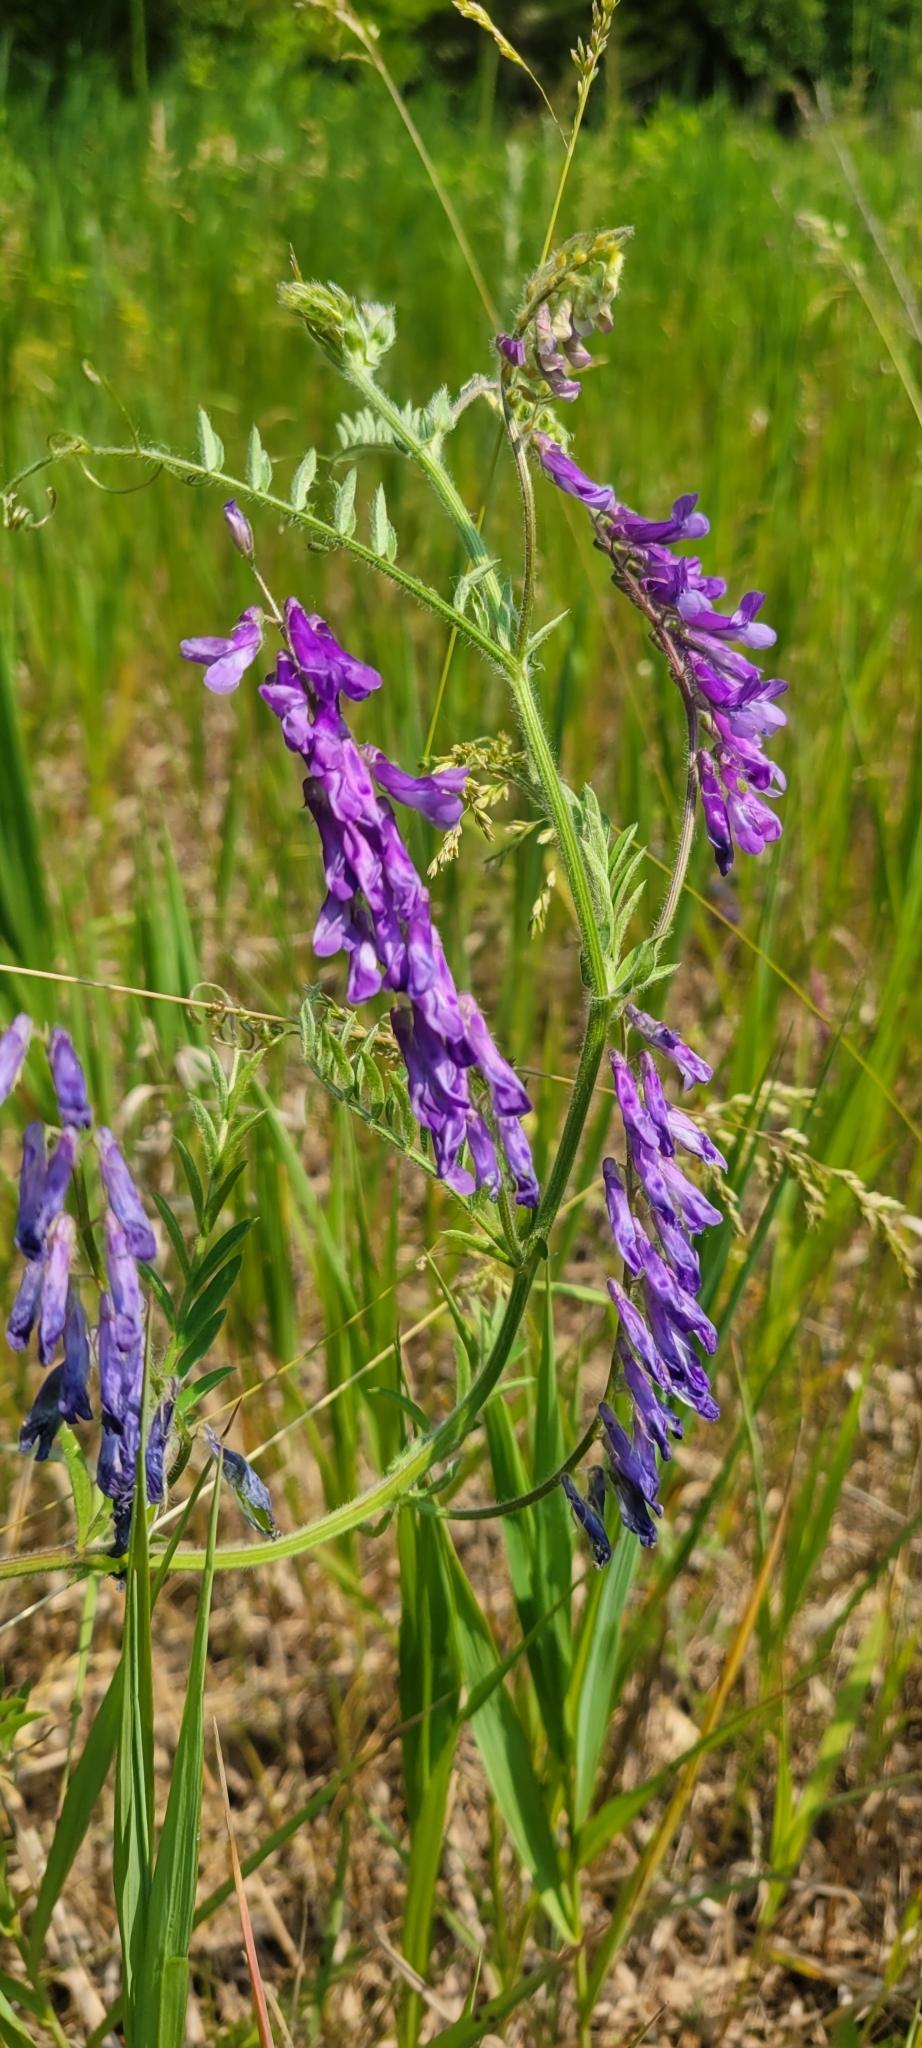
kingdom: Plantae
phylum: Tracheophyta
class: Magnoliopsida
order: Fabales
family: Fabaceae
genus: Vicia
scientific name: Vicia villosa
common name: Fodder vetch
